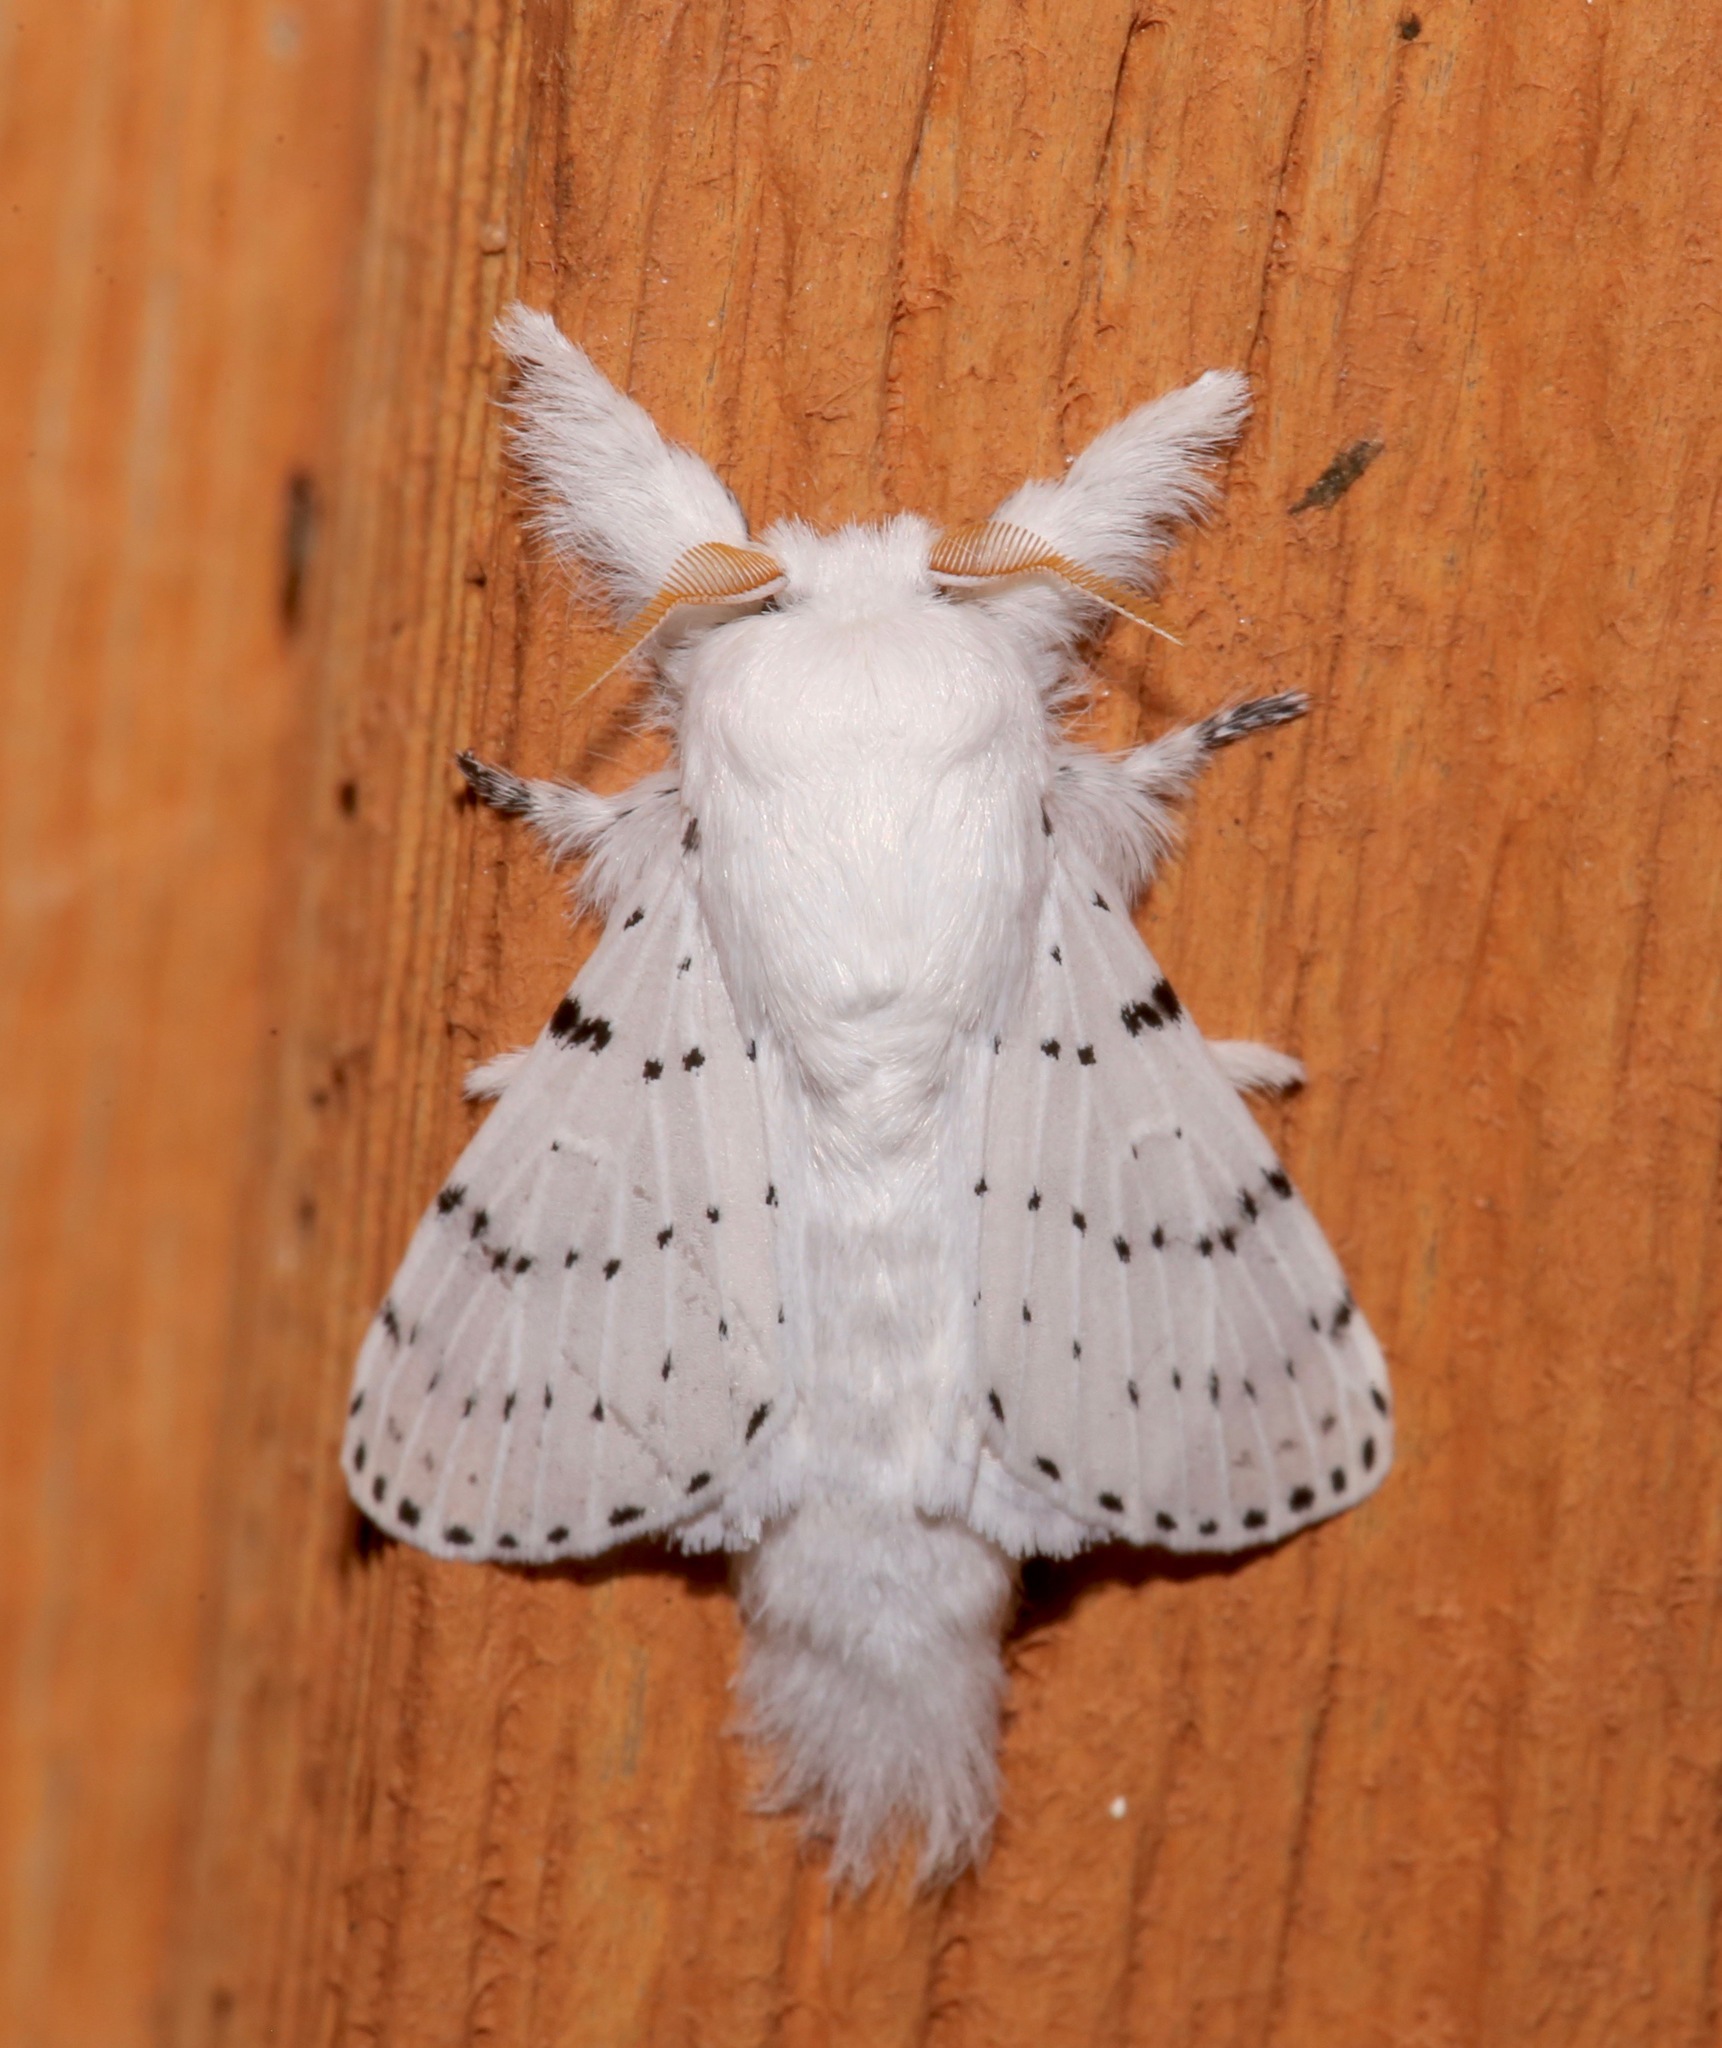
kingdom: Animalia
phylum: Arthropoda
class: Insecta
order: Lepidoptera
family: Lasiocampidae
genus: Artace
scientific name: Artace cribrarius
